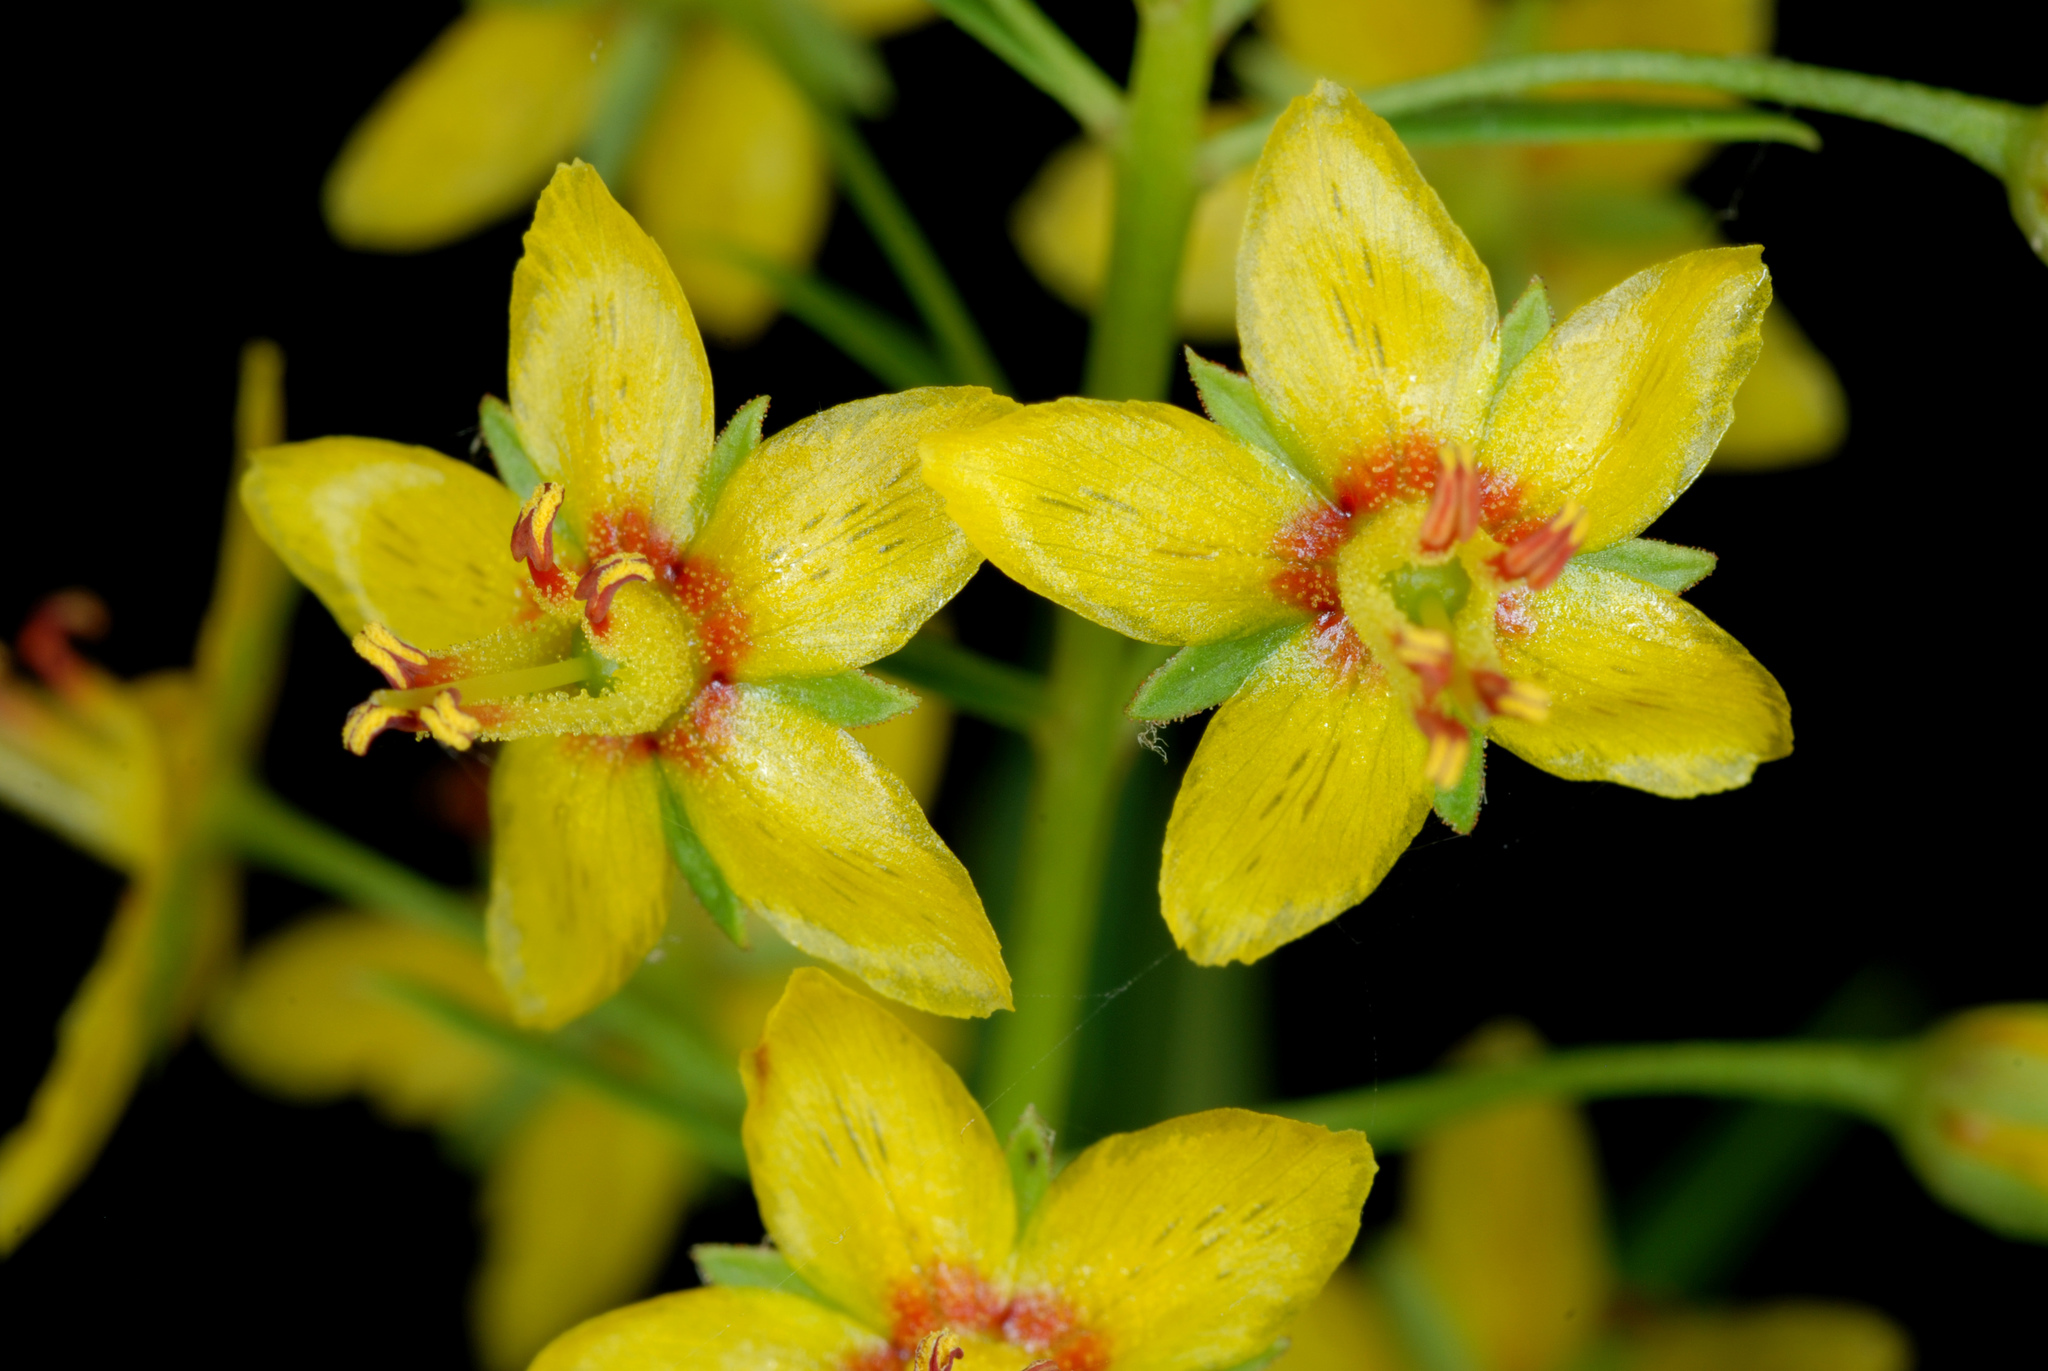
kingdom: Plantae
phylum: Tracheophyta
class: Magnoliopsida
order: Ericales
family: Primulaceae
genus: Lysimachia
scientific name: Lysimachia loomisii
